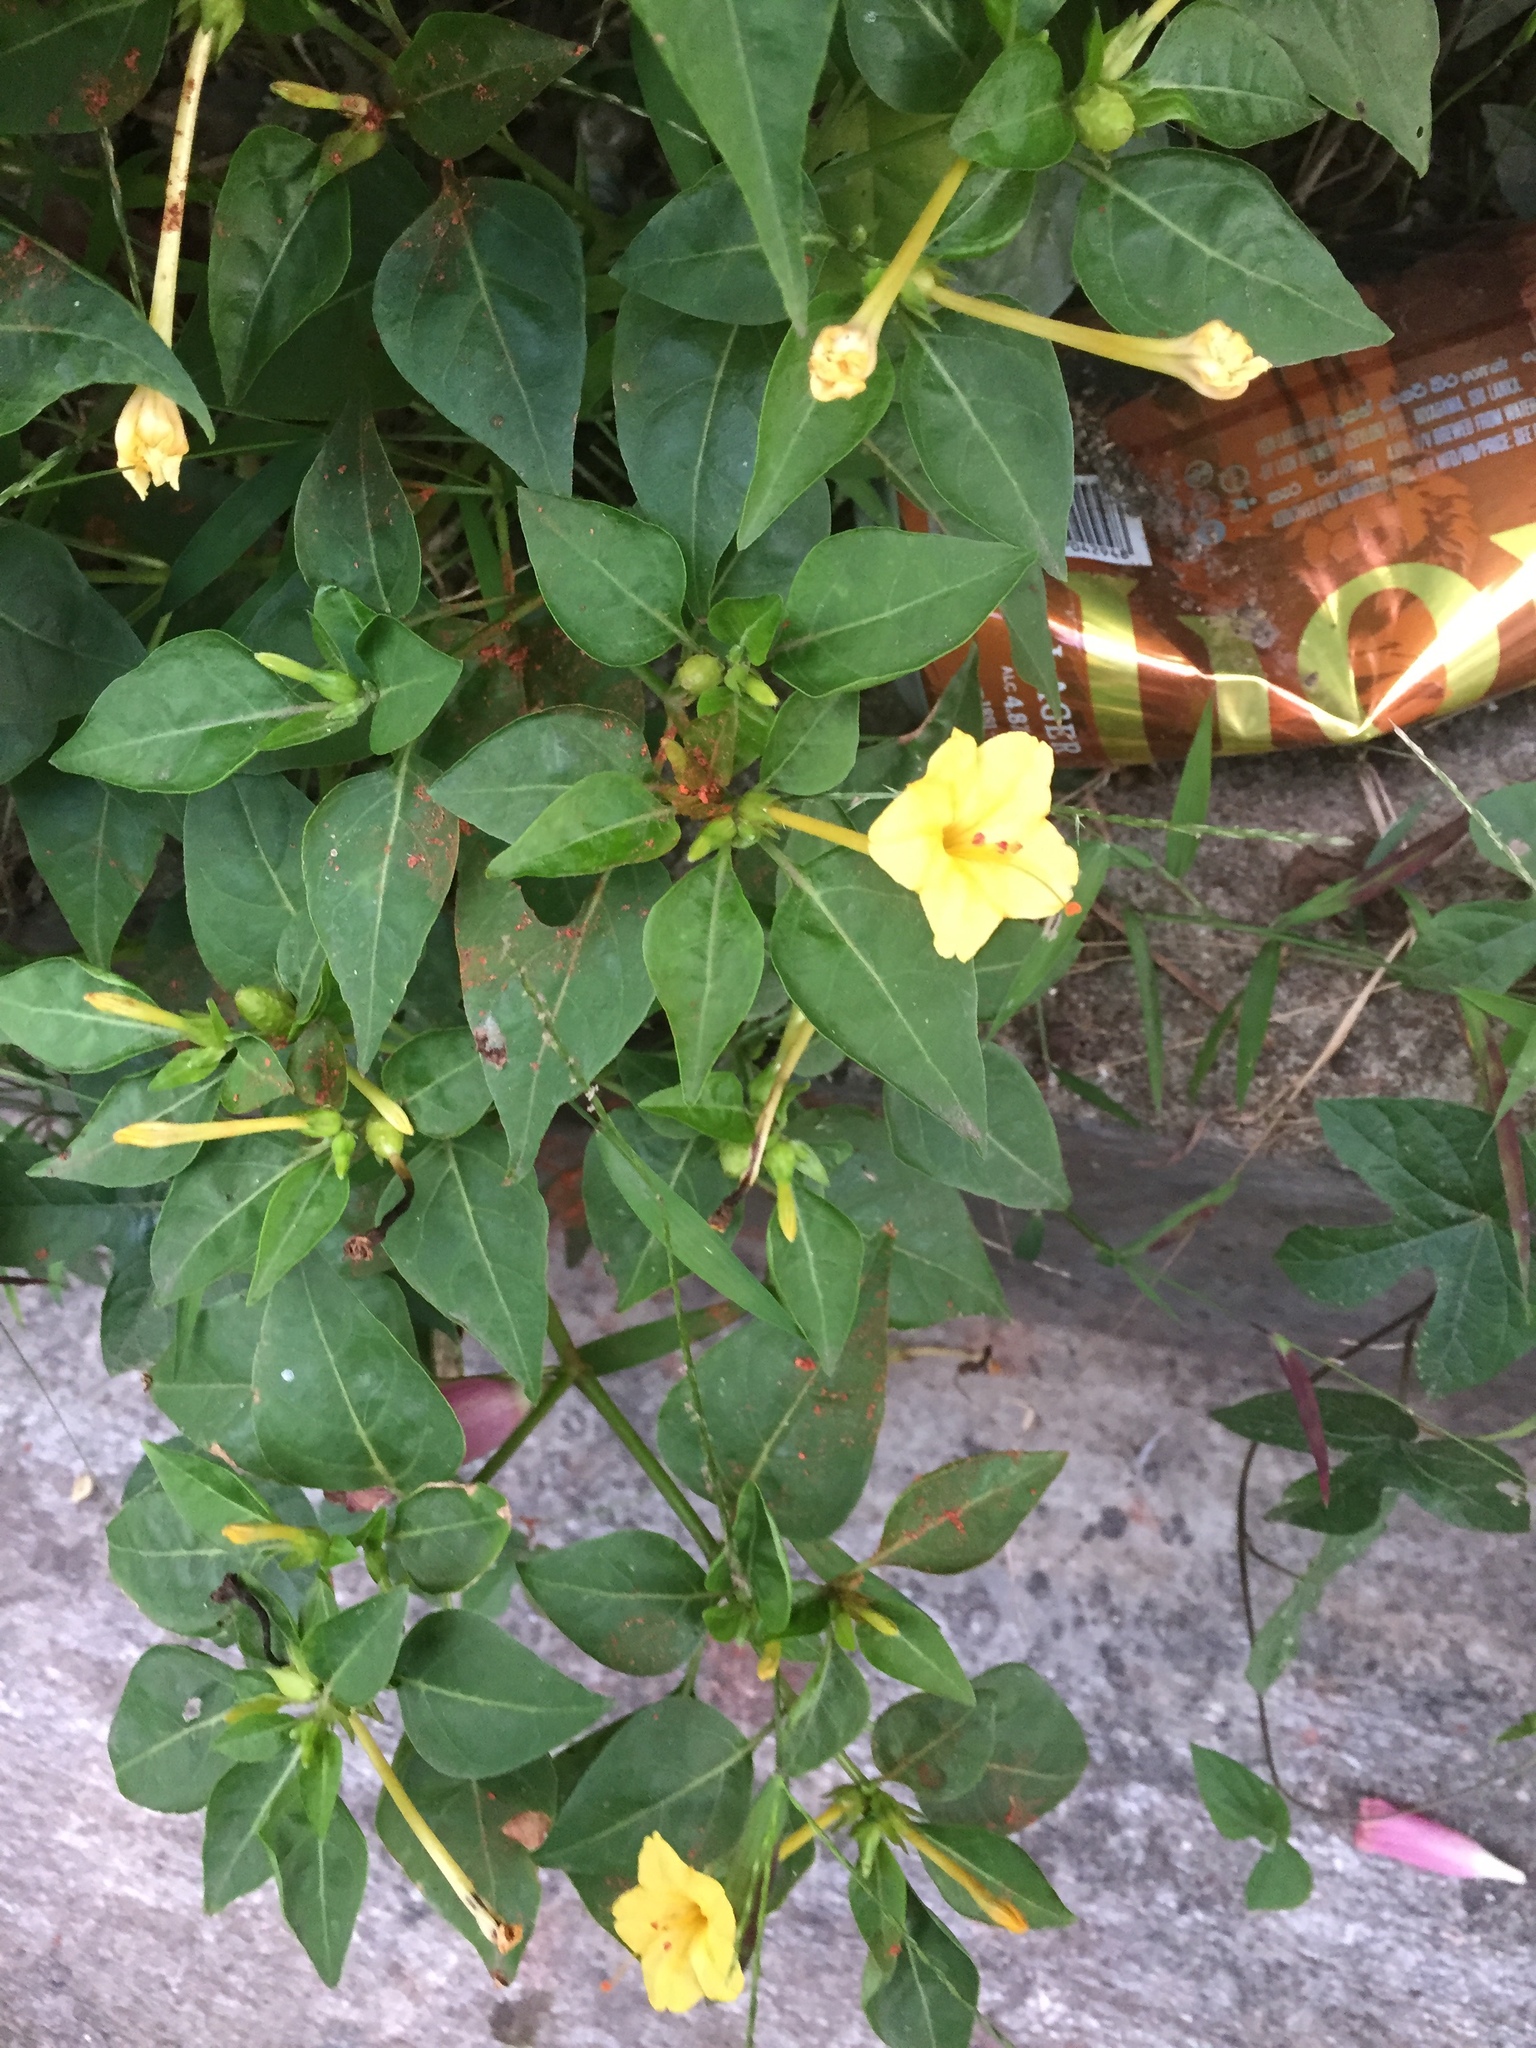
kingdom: Plantae
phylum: Tracheophyta
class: Magnoliopsida
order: Caryophyllales
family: Nyctaginaceae
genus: Mirabilis
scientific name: Mirabilis jalapa
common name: Marvel-of-peru
